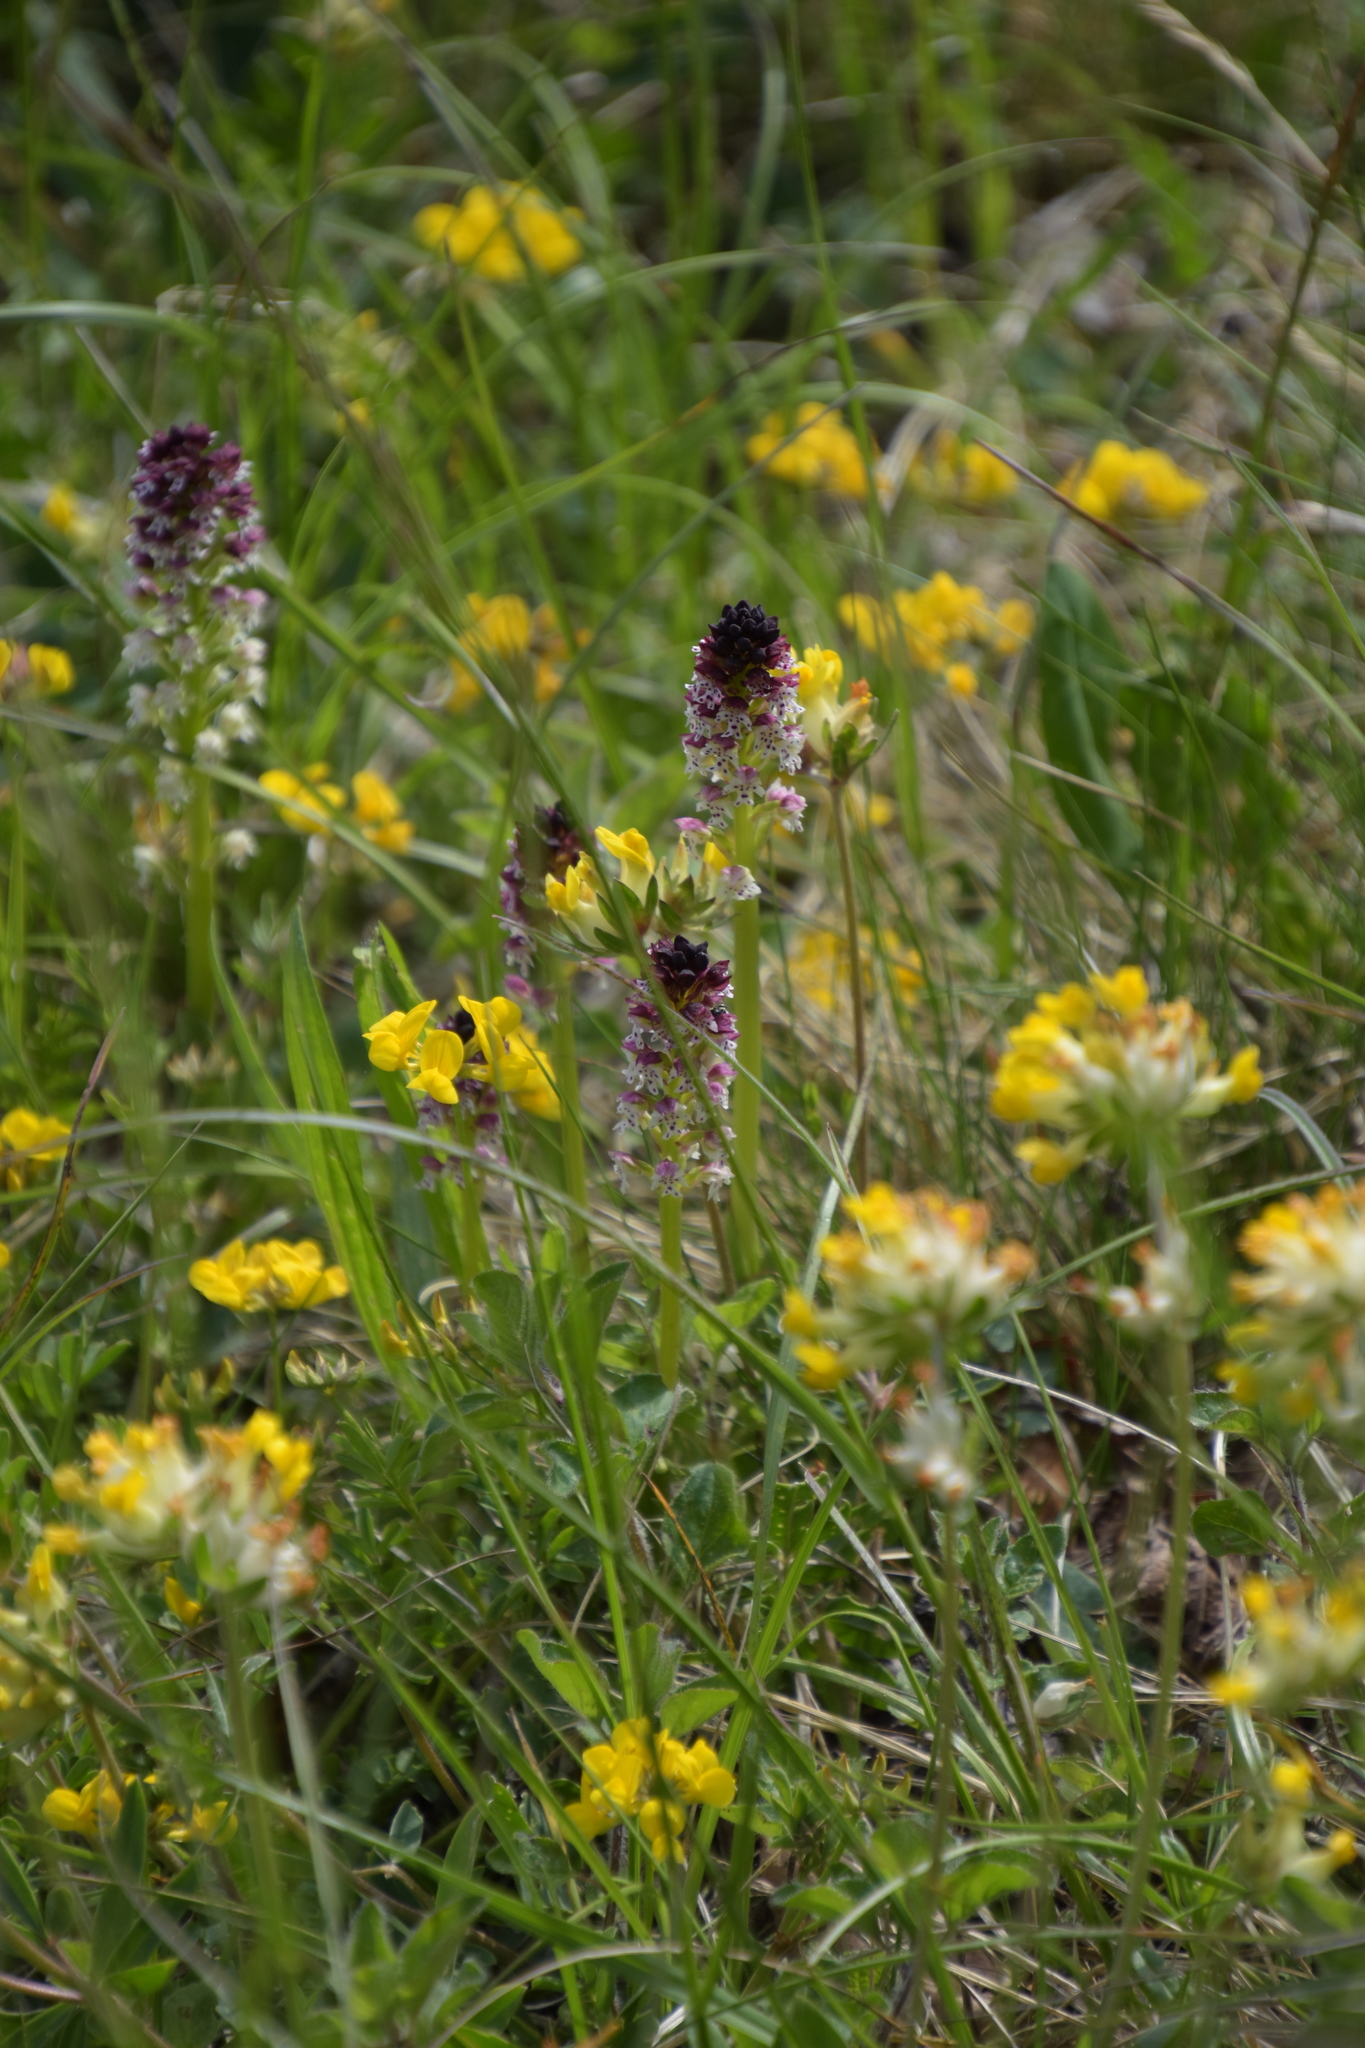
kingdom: Plantae
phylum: Tracheophyta
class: Liliopsida
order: Asparagales
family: Orchidaceae
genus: Neotinea
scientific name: Neotinea ustulata
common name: Burnt orchid
